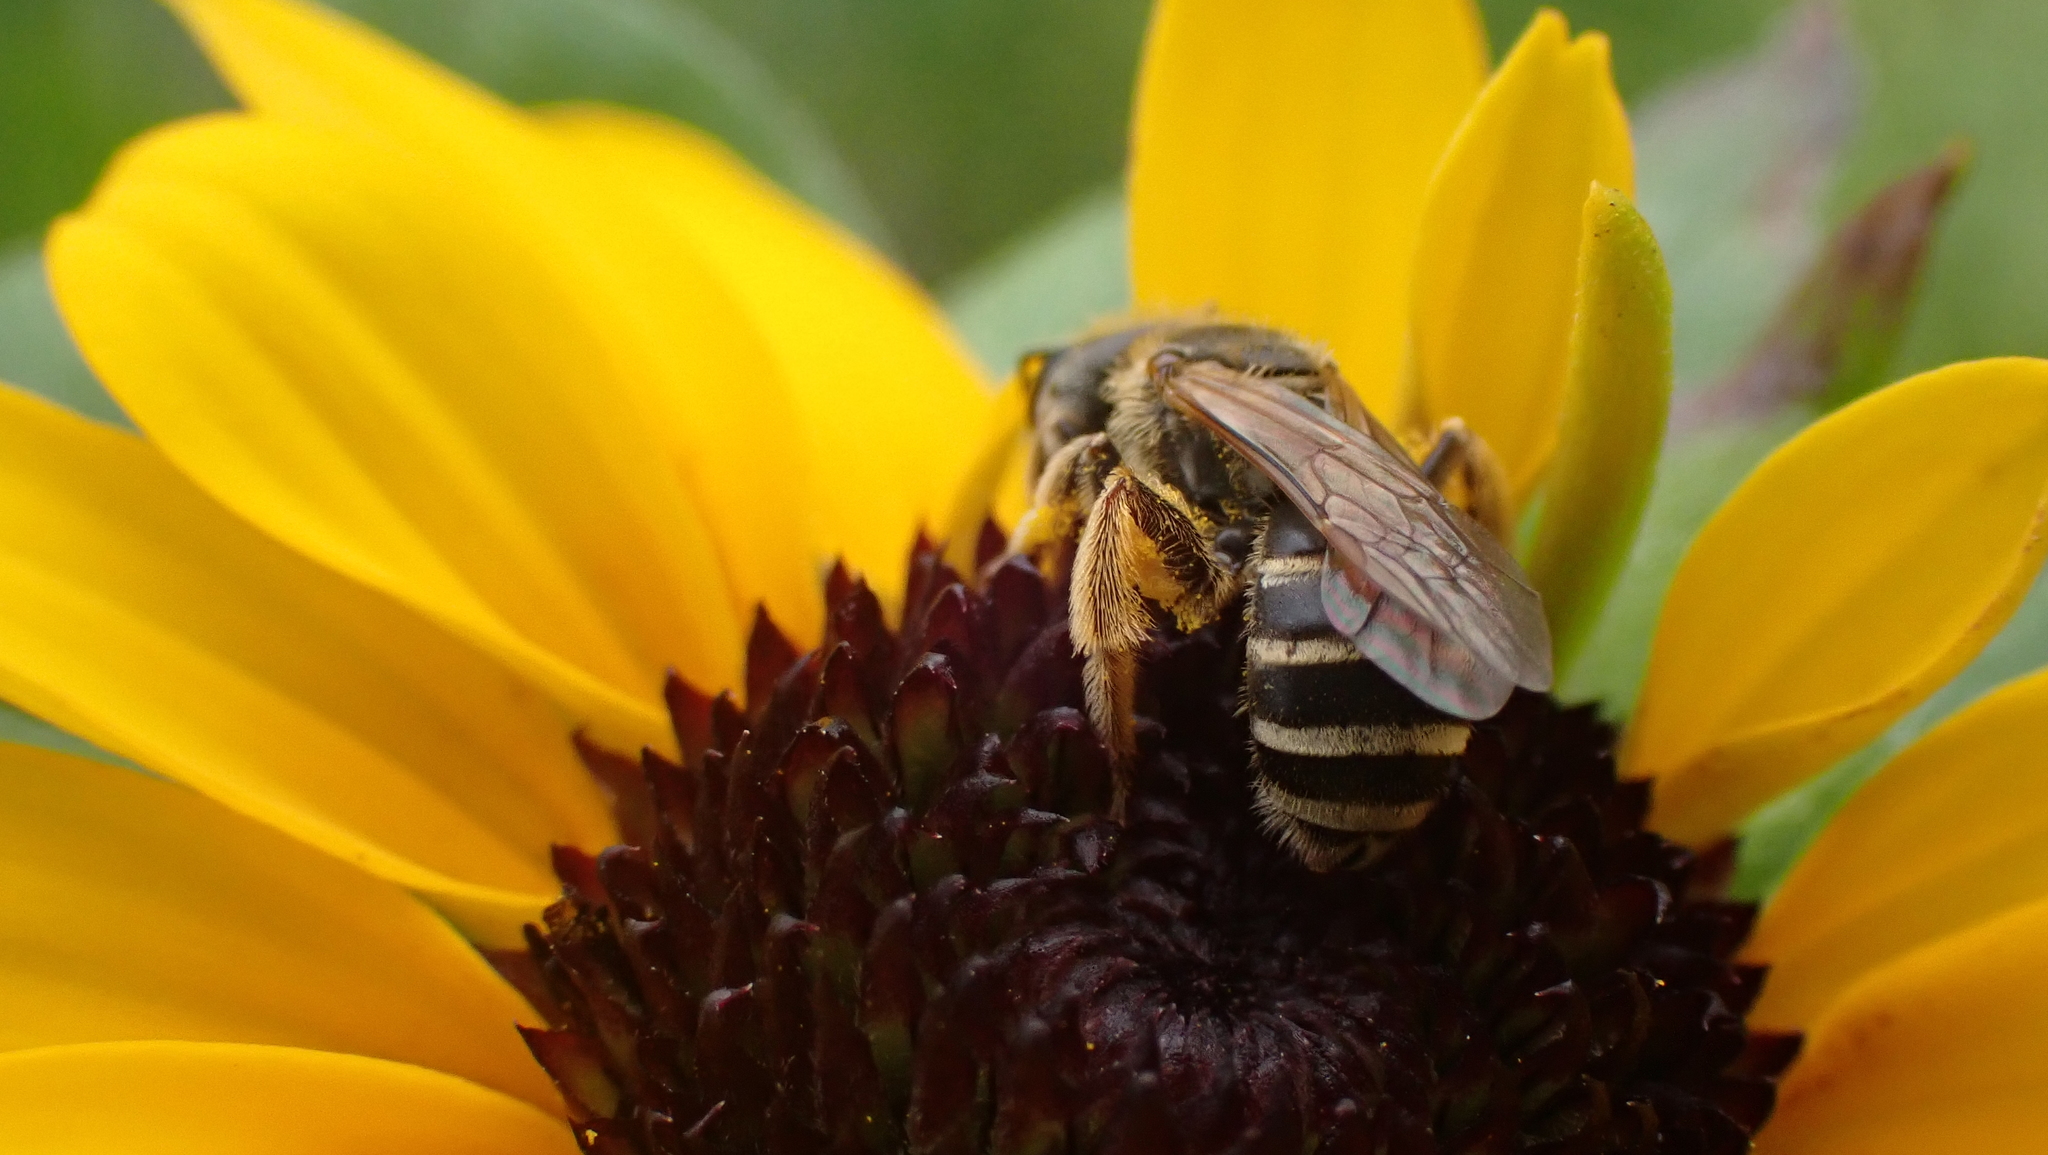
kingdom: Animalia
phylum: Arthropoda
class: Insecta
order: Hymenoptera
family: Halictidae
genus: Halictus
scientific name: Halictus ligatus
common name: Ligated furrow bee
